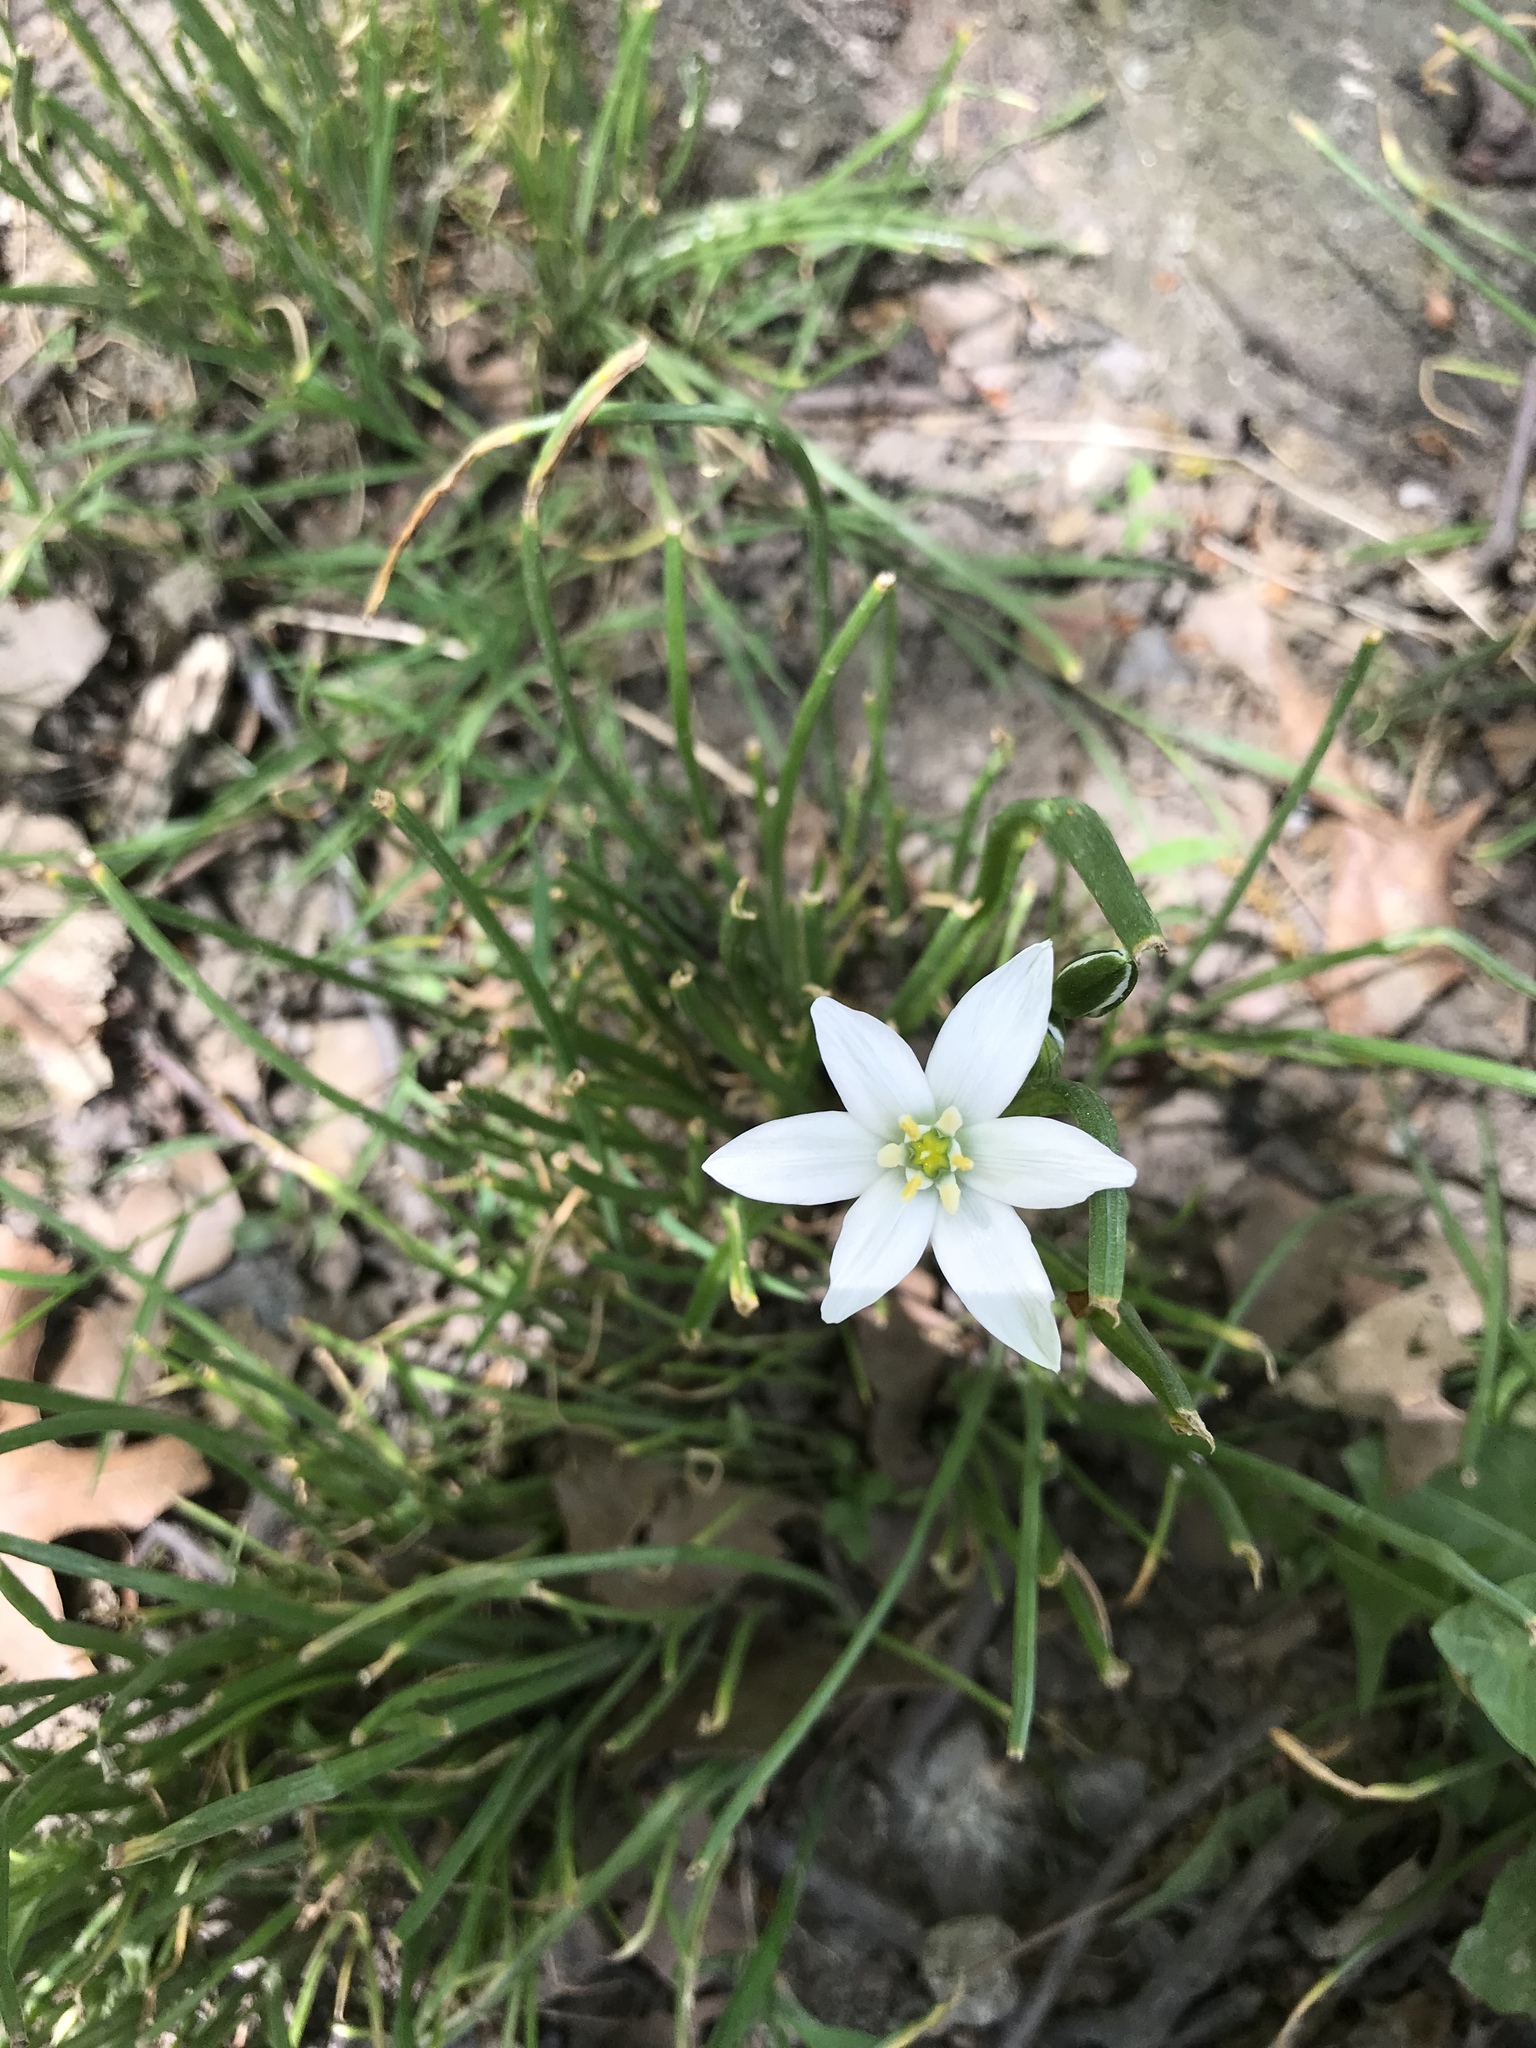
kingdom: Plantae
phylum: Tracheophyta
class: Liliopsida
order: Asparagales
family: Asparagaceae
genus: Ornithogalum
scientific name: Ornithogalum umbellatum
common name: Garden star-of-bethlehem
